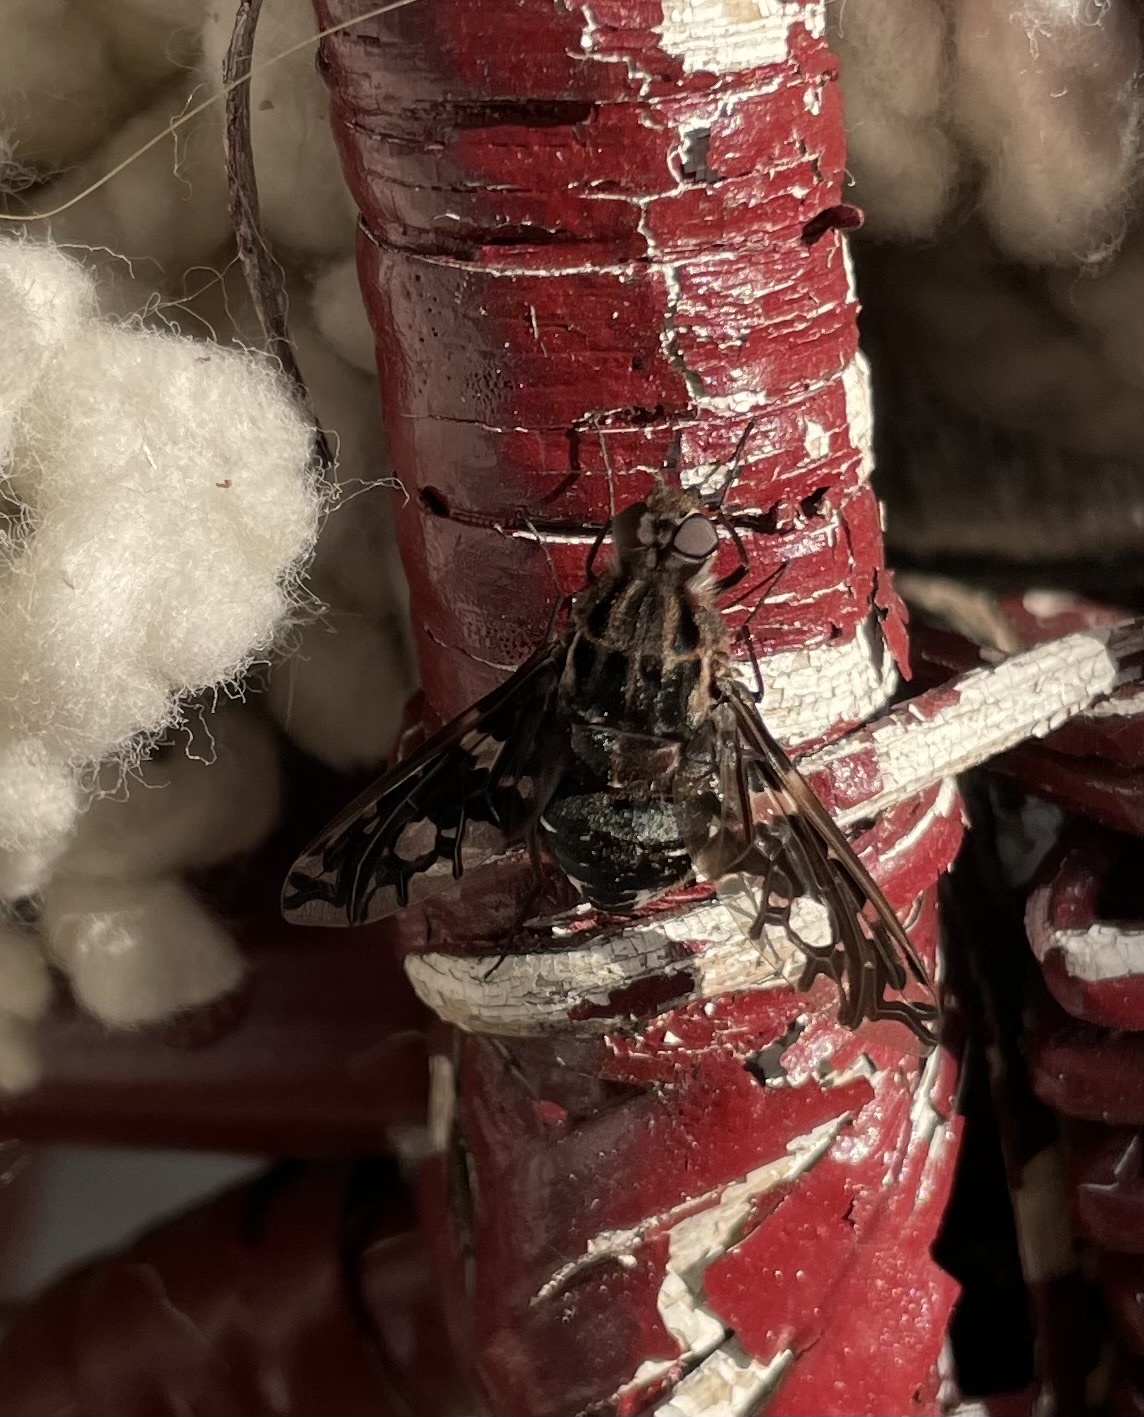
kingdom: Animalia
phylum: Arthropoda
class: Insecta
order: Diptera
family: Bombyliidae
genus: Xenox
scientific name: Xenox tigrinus
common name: Tiger bee fly
